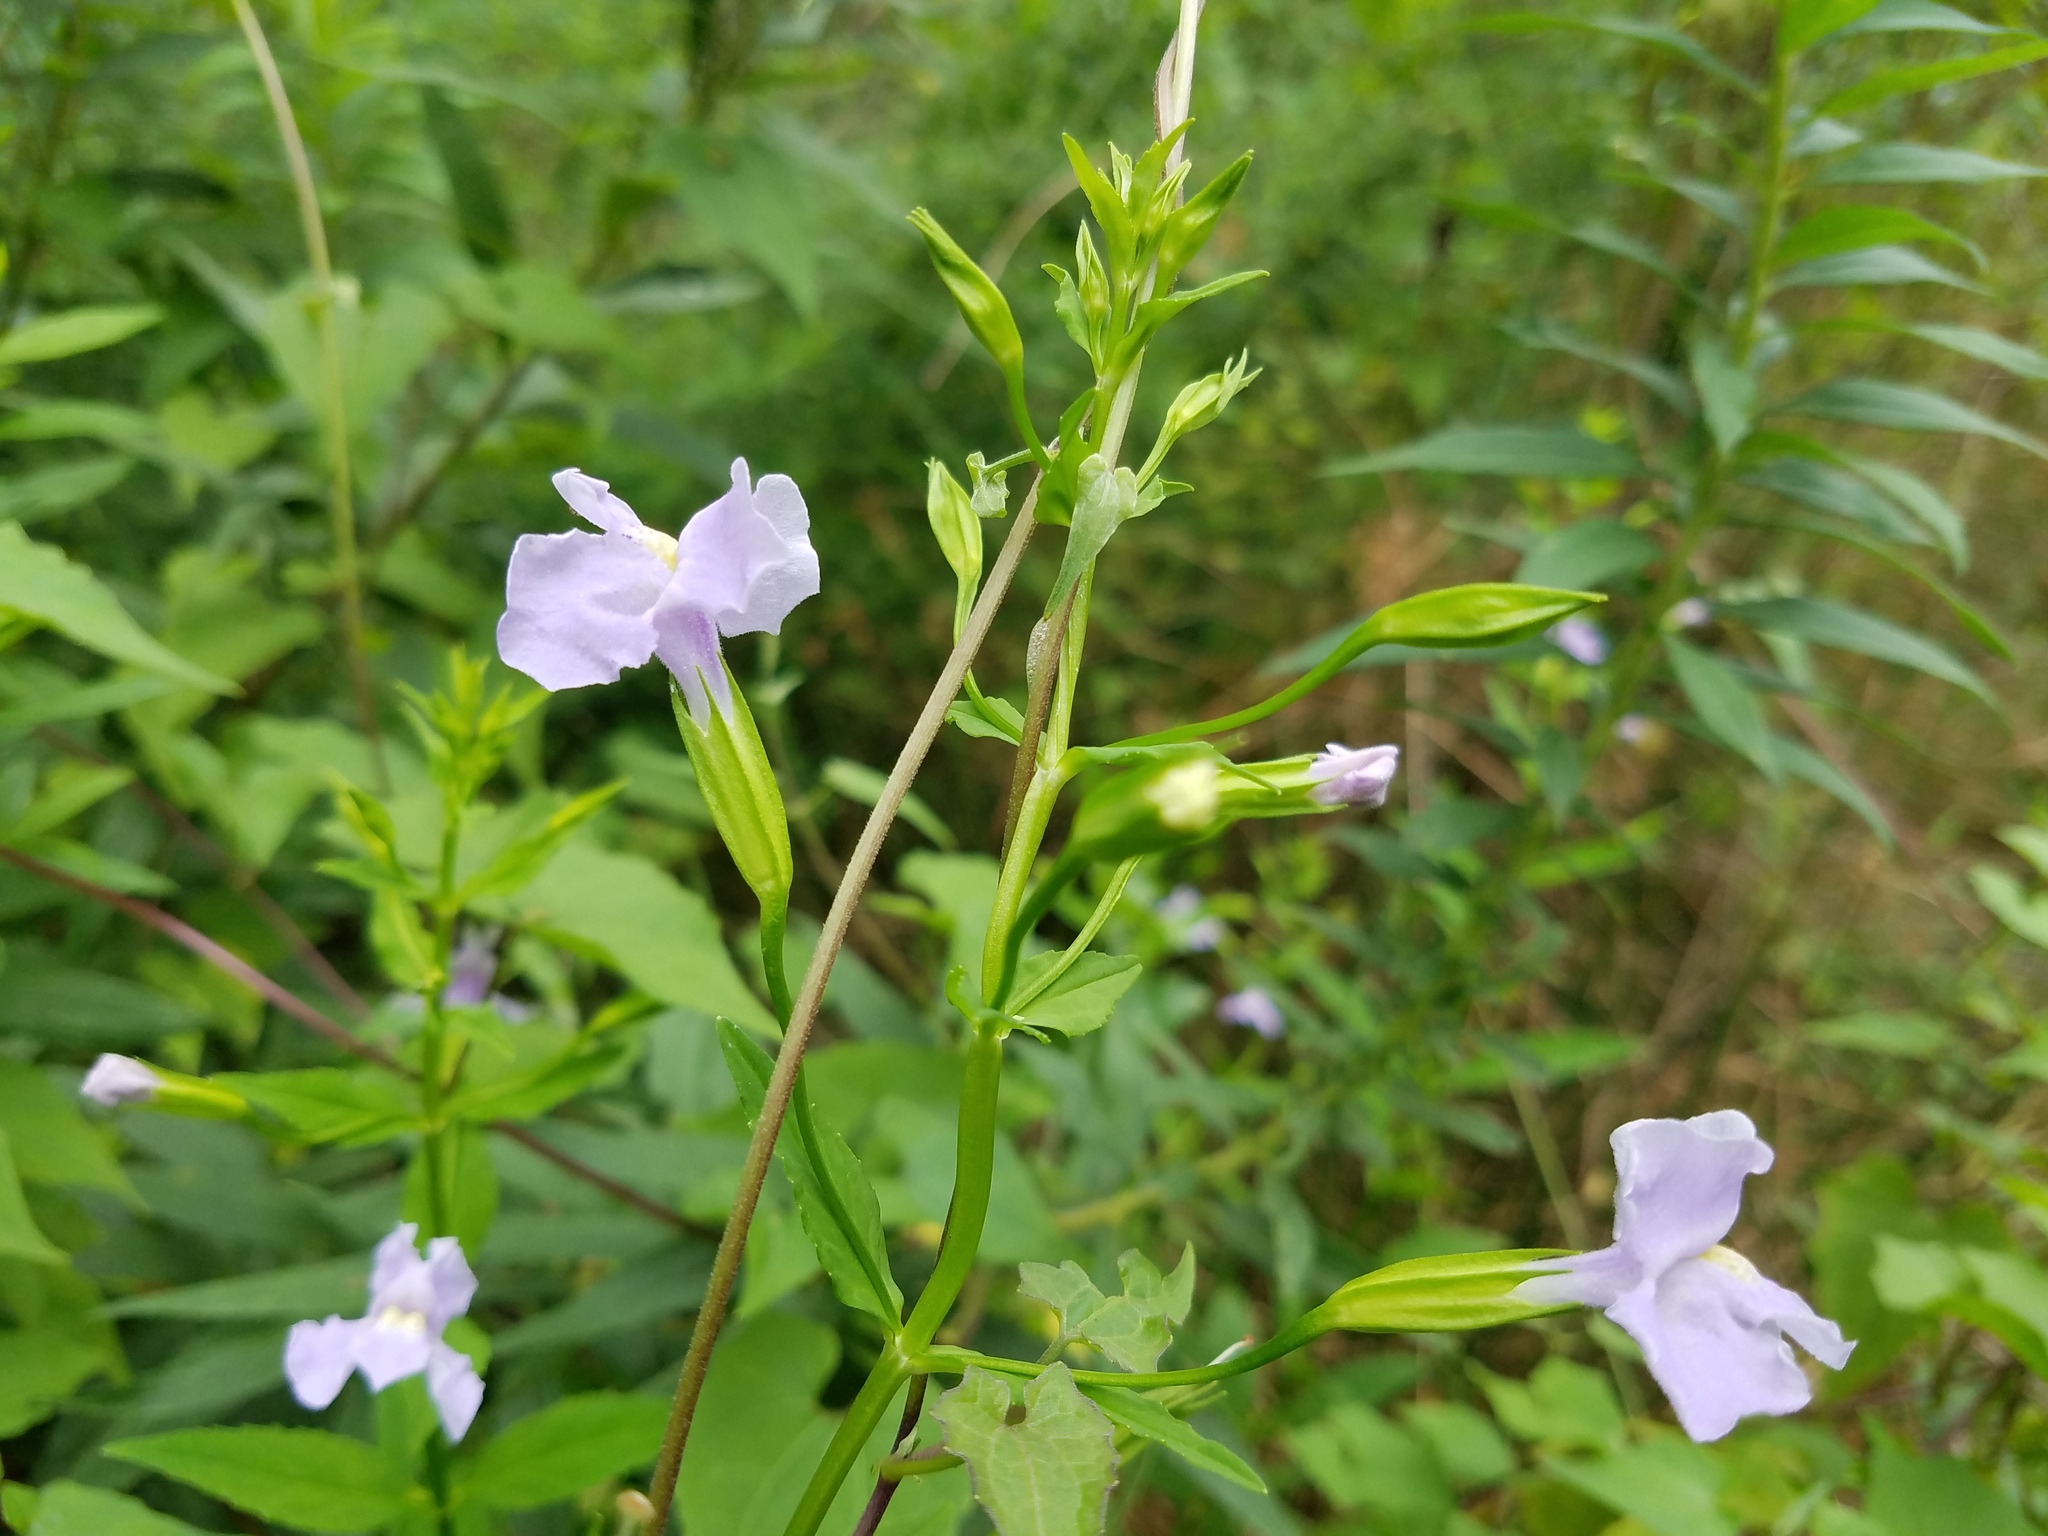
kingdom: Plantae
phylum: Tracheophyta
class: Magnoliopsida
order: Lamiales
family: Phrymaceae
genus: Mimulus
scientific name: Mimulus ringens
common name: Allegheny monkeyflower
